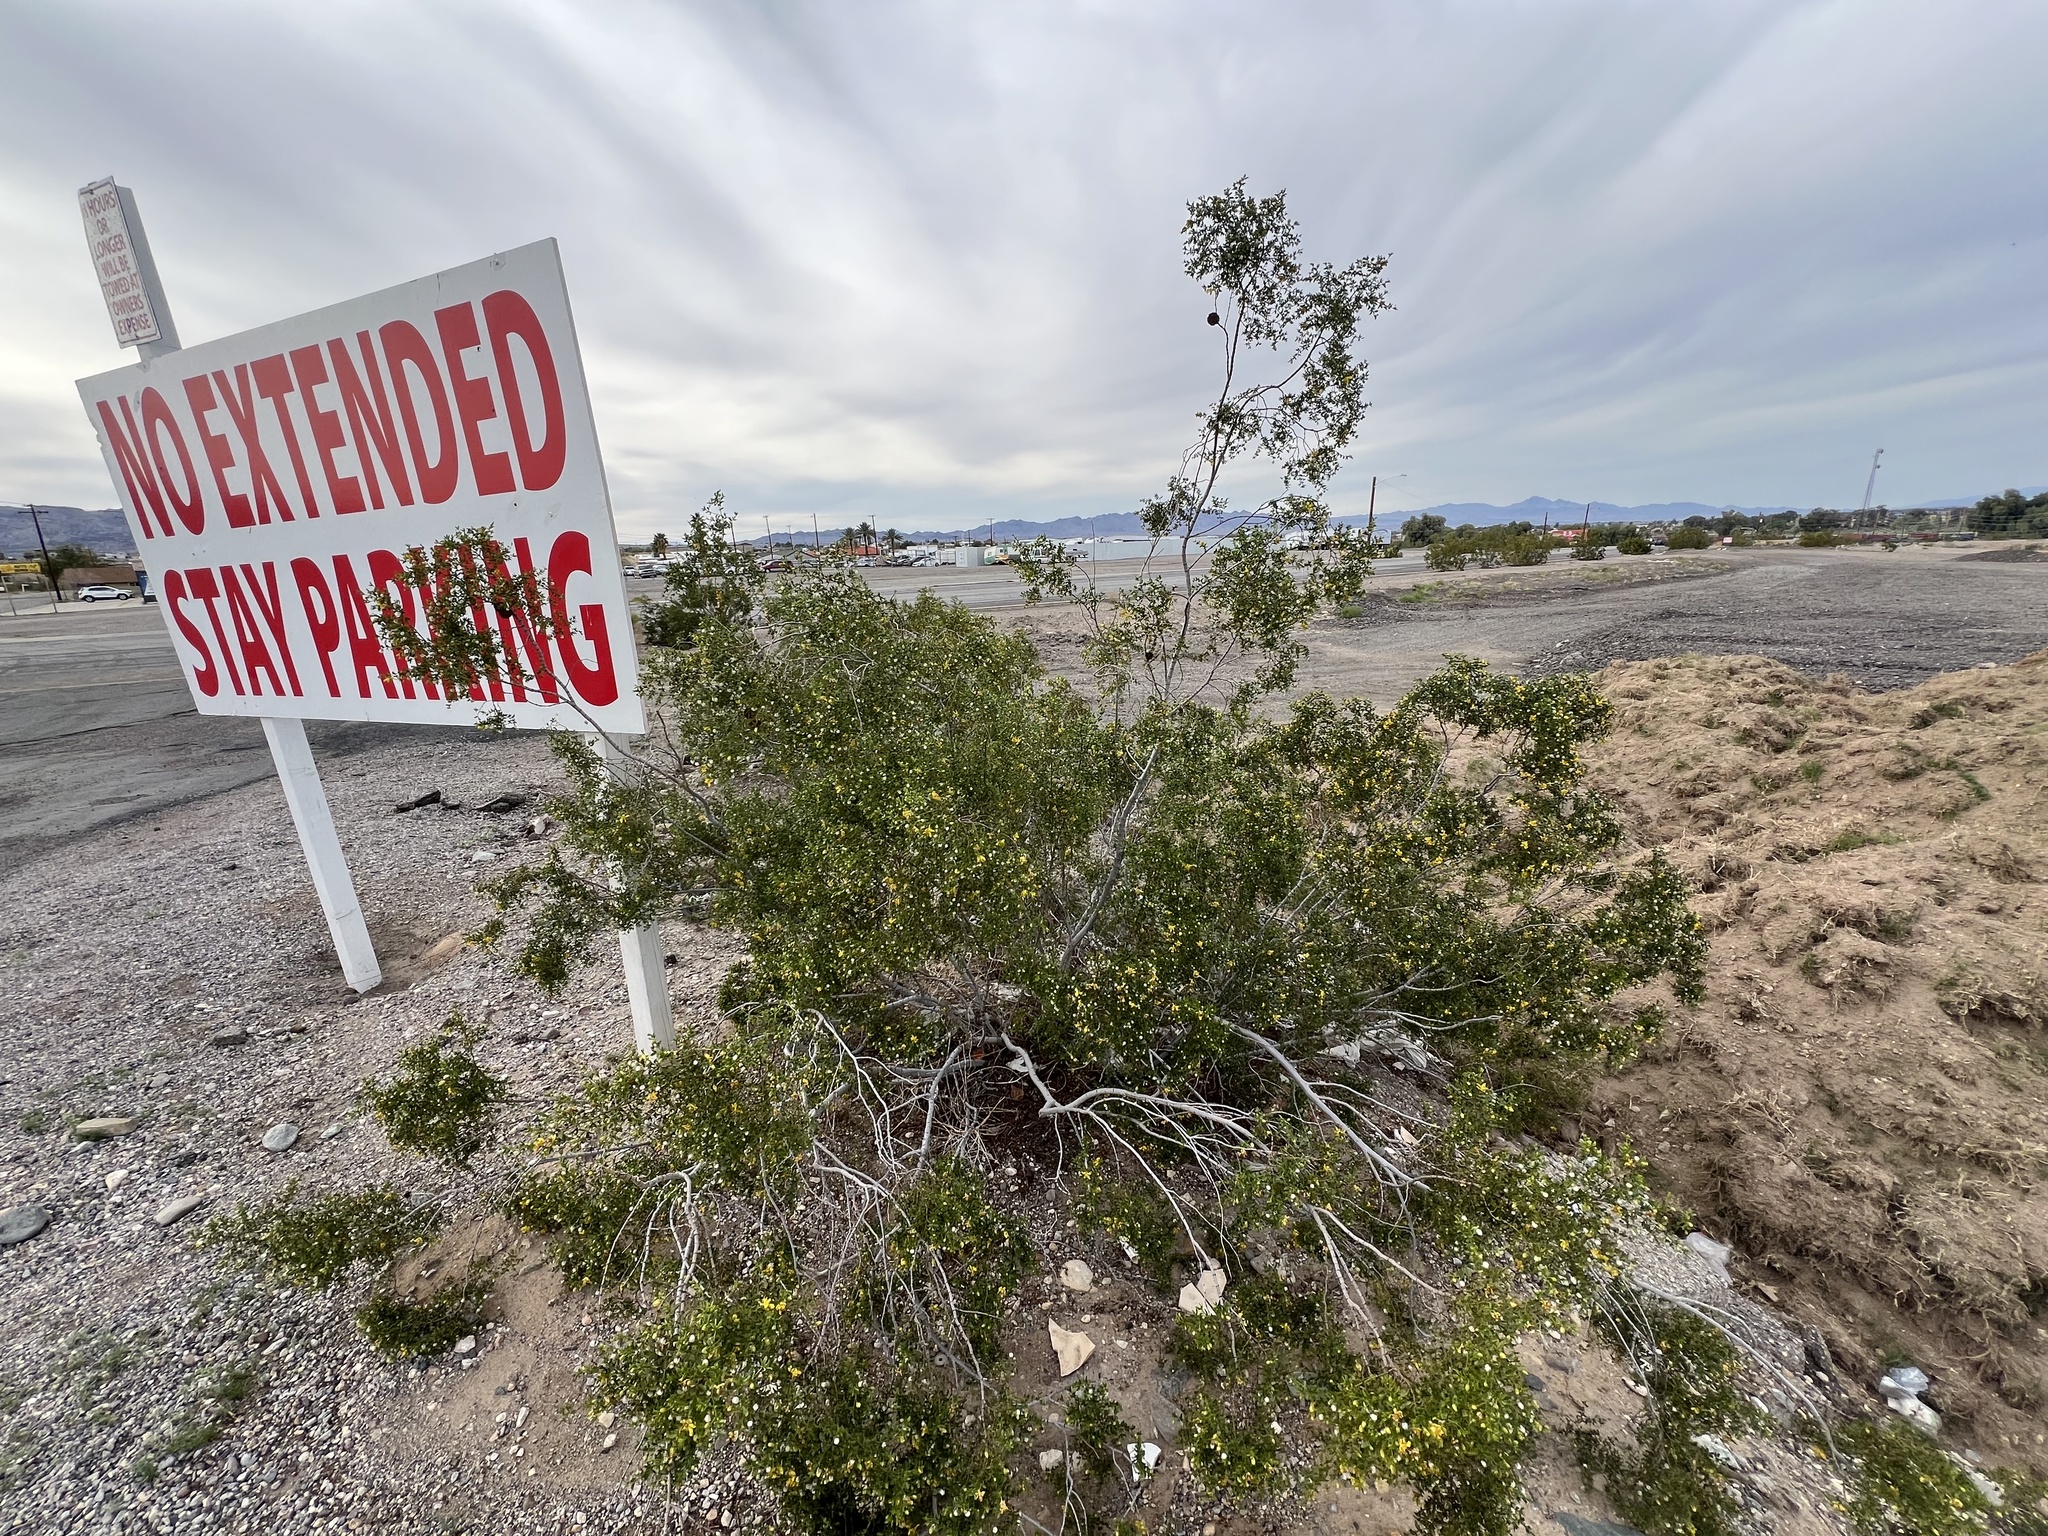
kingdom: Plantae
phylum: Tracheophyta
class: Magnoliopsida
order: Zygophyllales
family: Zygophyllaceae
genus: Larrea
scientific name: Larrea tridentata
